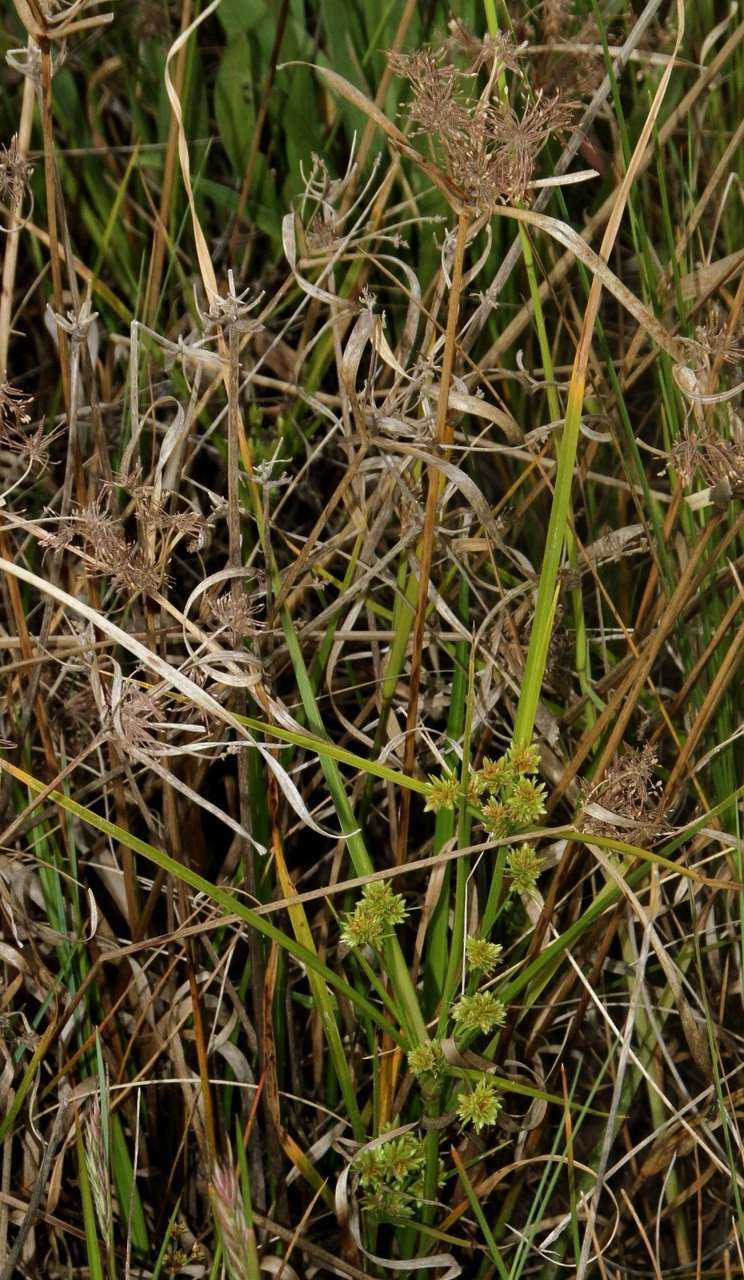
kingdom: Plantae
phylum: Tracheophyta
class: Liliopsida
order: Poales
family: Cyperaceae
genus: Cyperus
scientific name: Cyperus eragrostis
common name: Tall flatsedge
